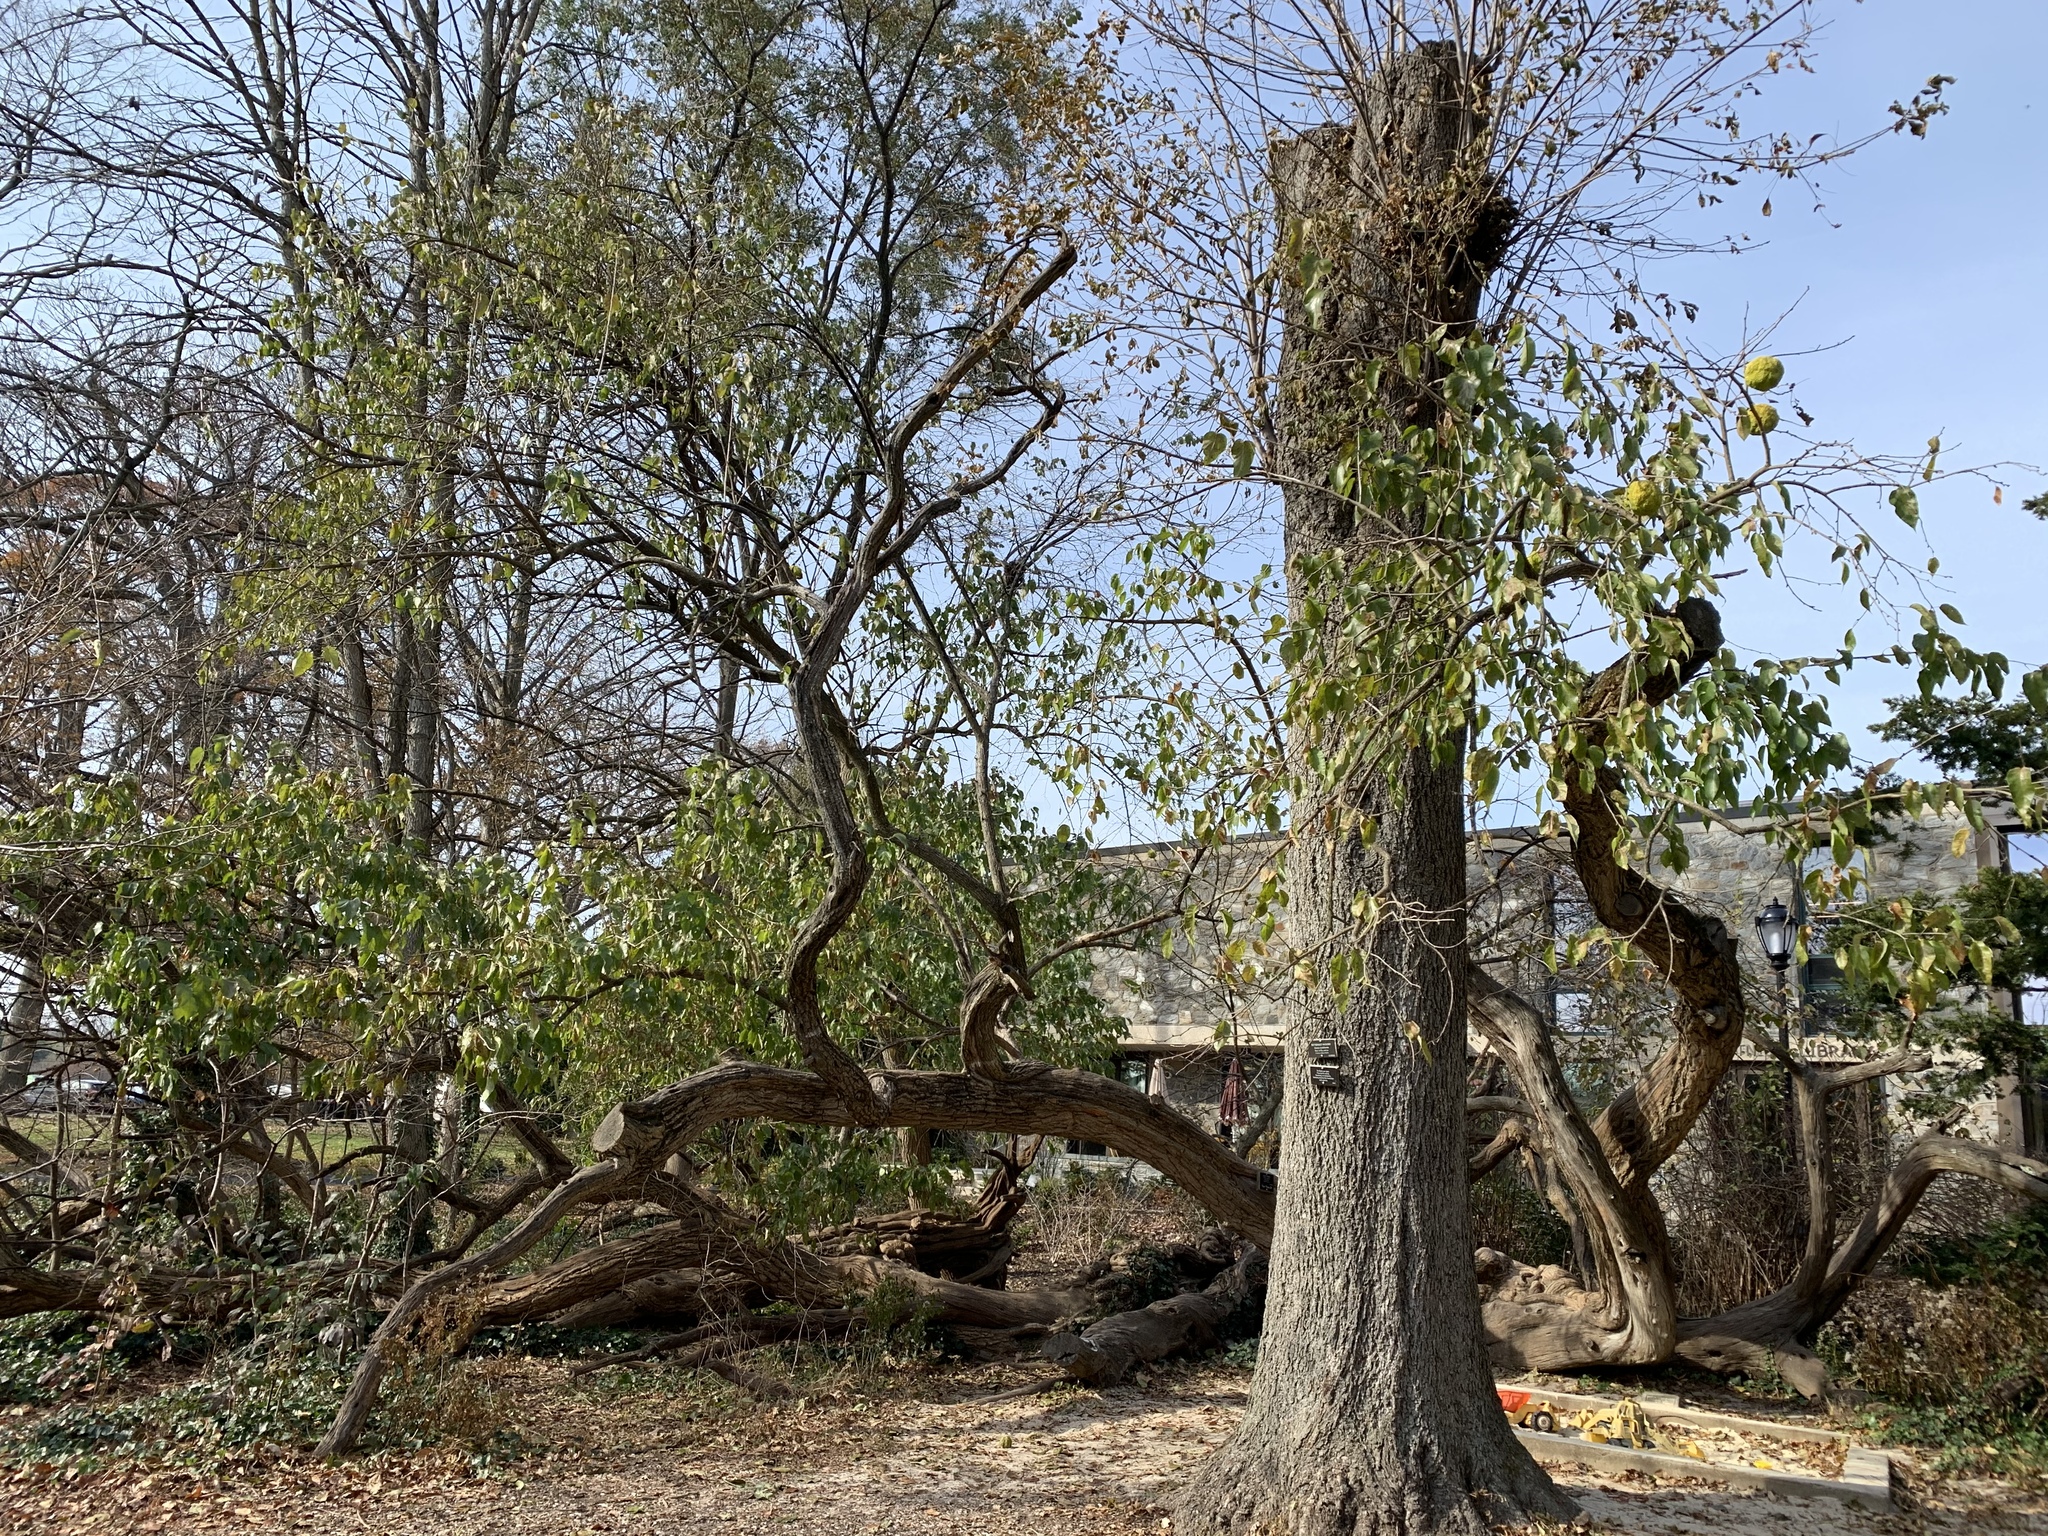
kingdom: Plantae
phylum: Tracheophyta
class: Magnoliopsida
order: Rosales
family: Moraceae
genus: Maclura
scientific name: Maclura pomifera
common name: Osage-orange
